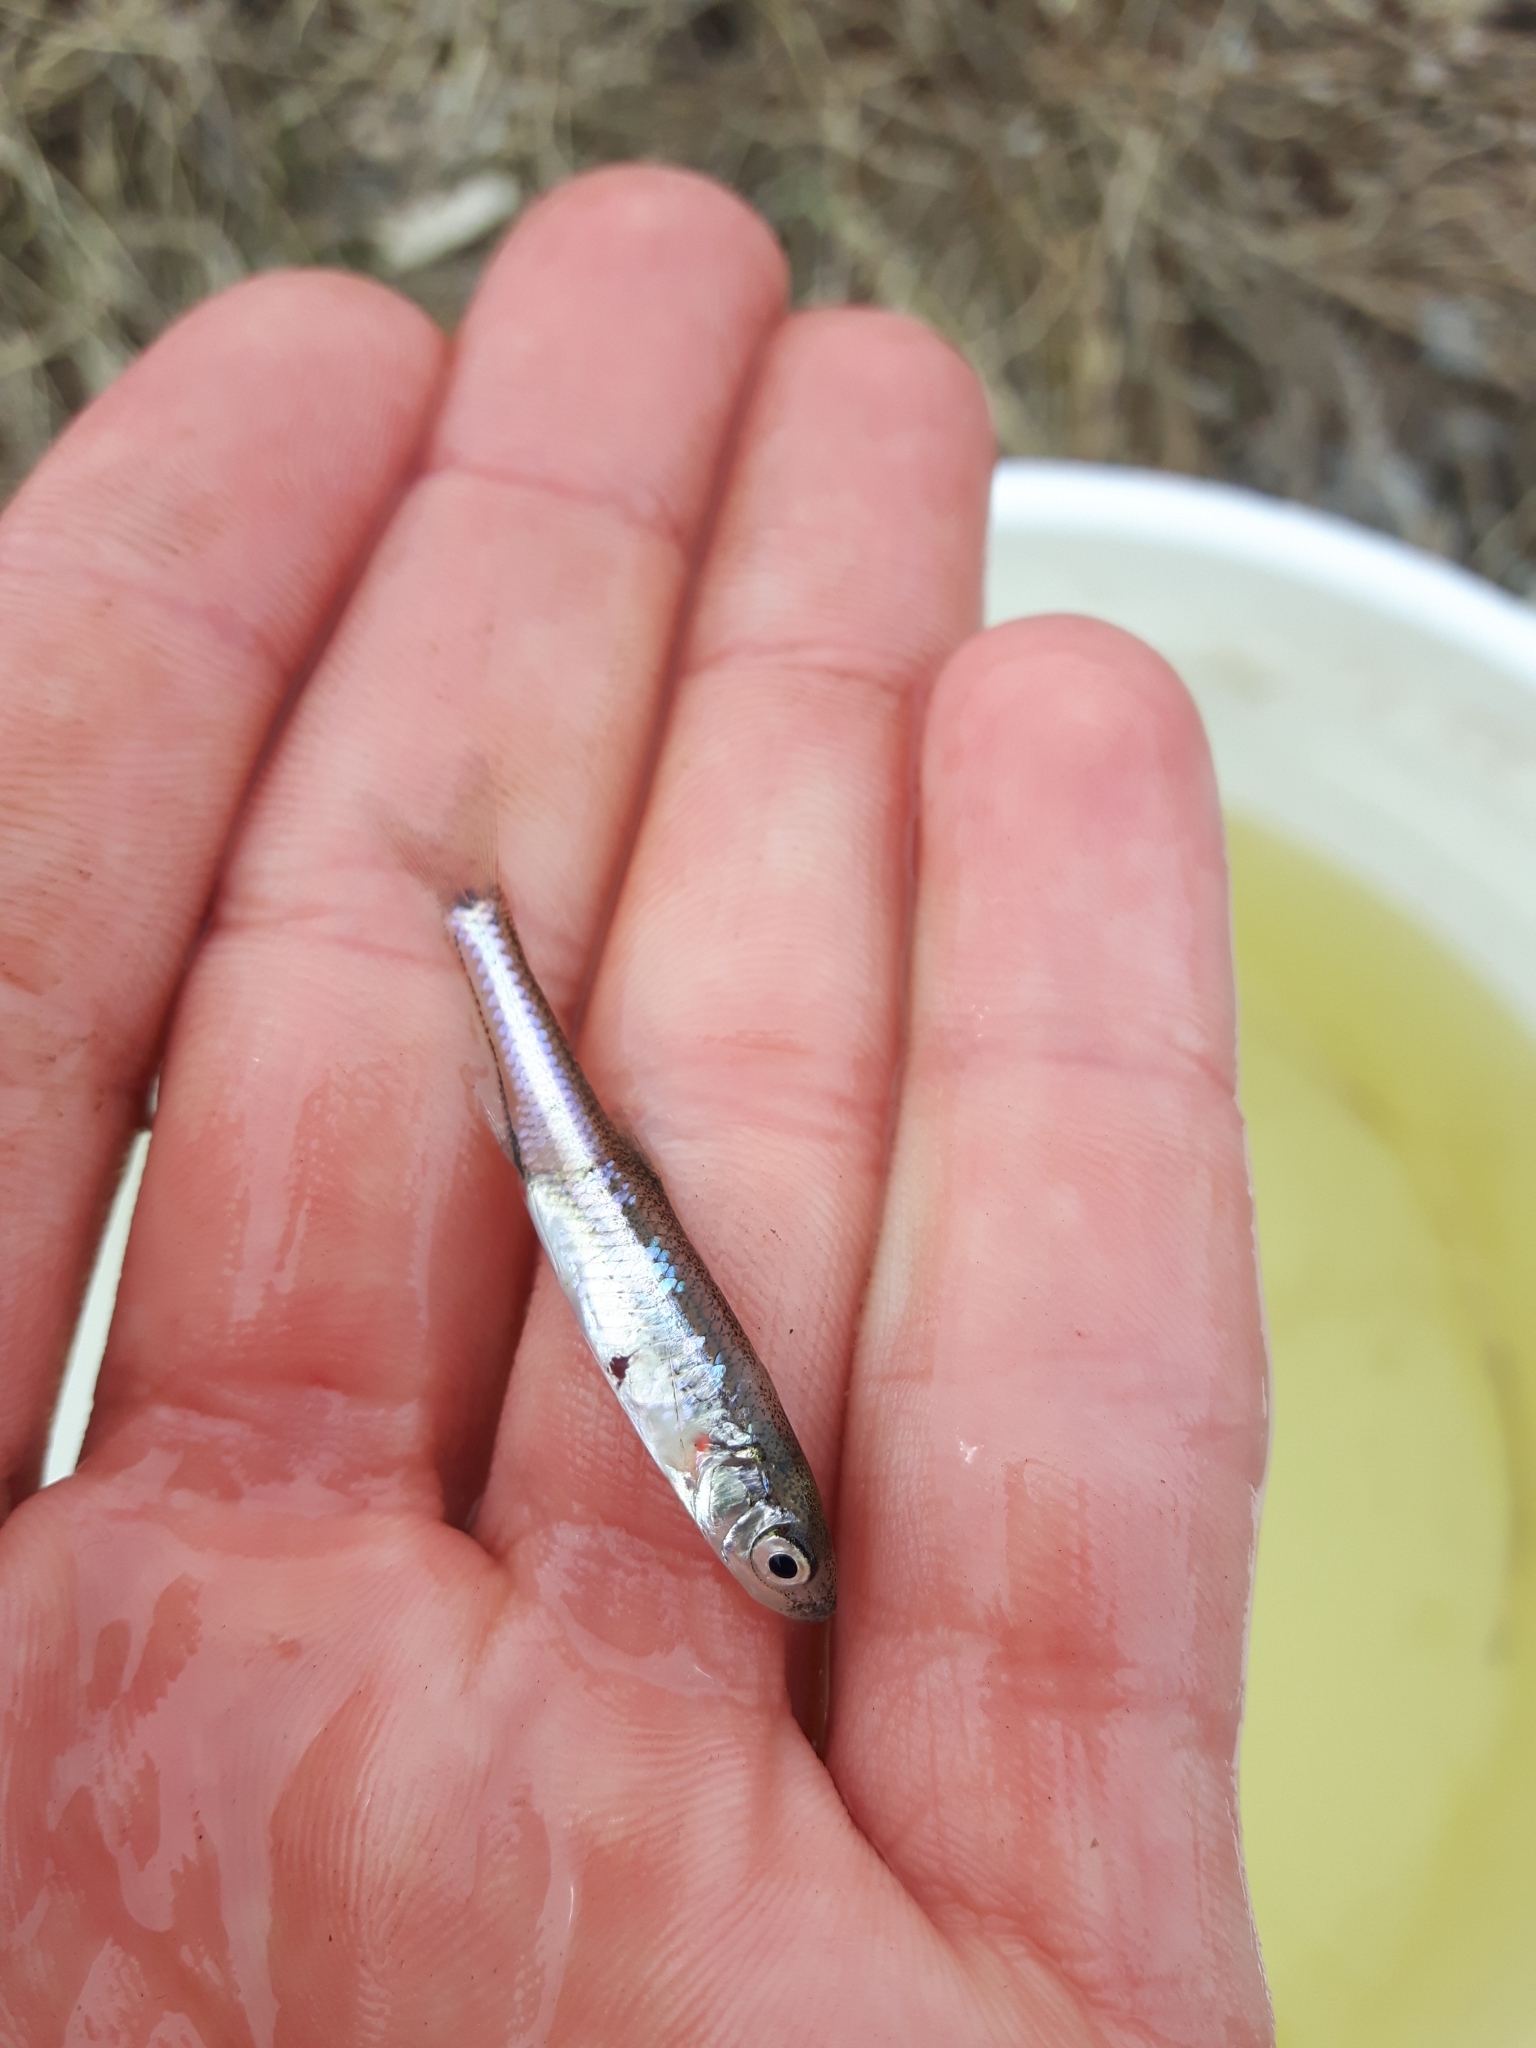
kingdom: Animalia
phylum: Chordata
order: Cypriniformes
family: Cyprinidae
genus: Notropis
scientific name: Notropis atherinoides
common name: Emerald shiner
